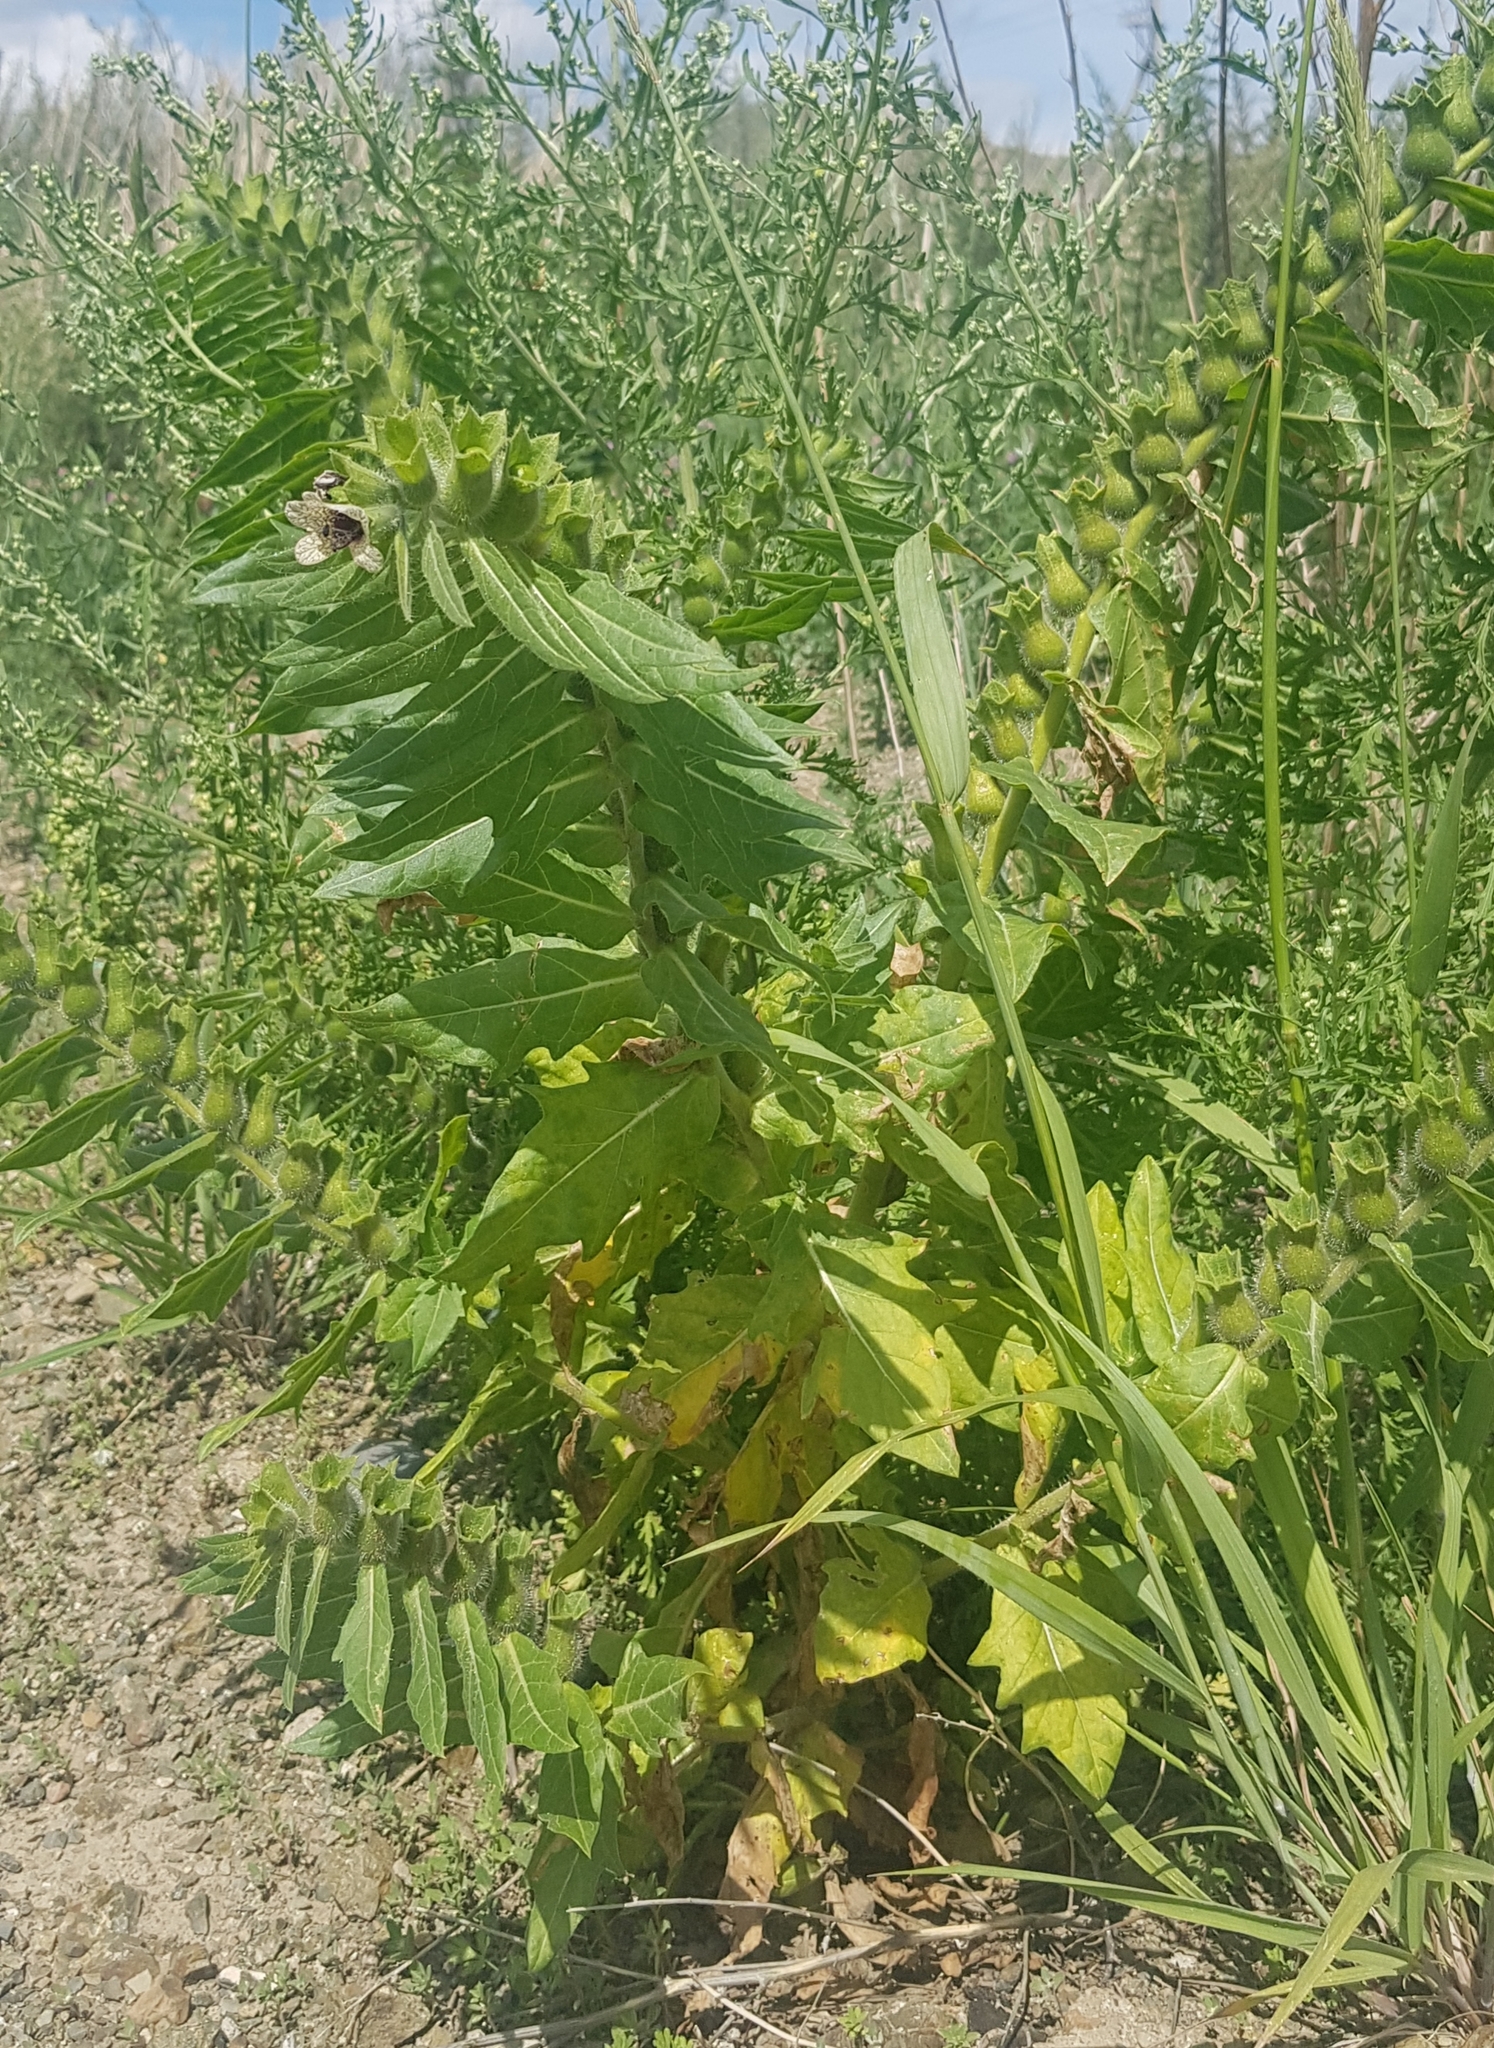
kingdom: Plantae
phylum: Tracheophyta
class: Magnoliopsida
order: Solanales
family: Solanaceae
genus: Hyoscyamus
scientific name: Hyoscyamus niger
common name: Henbane
